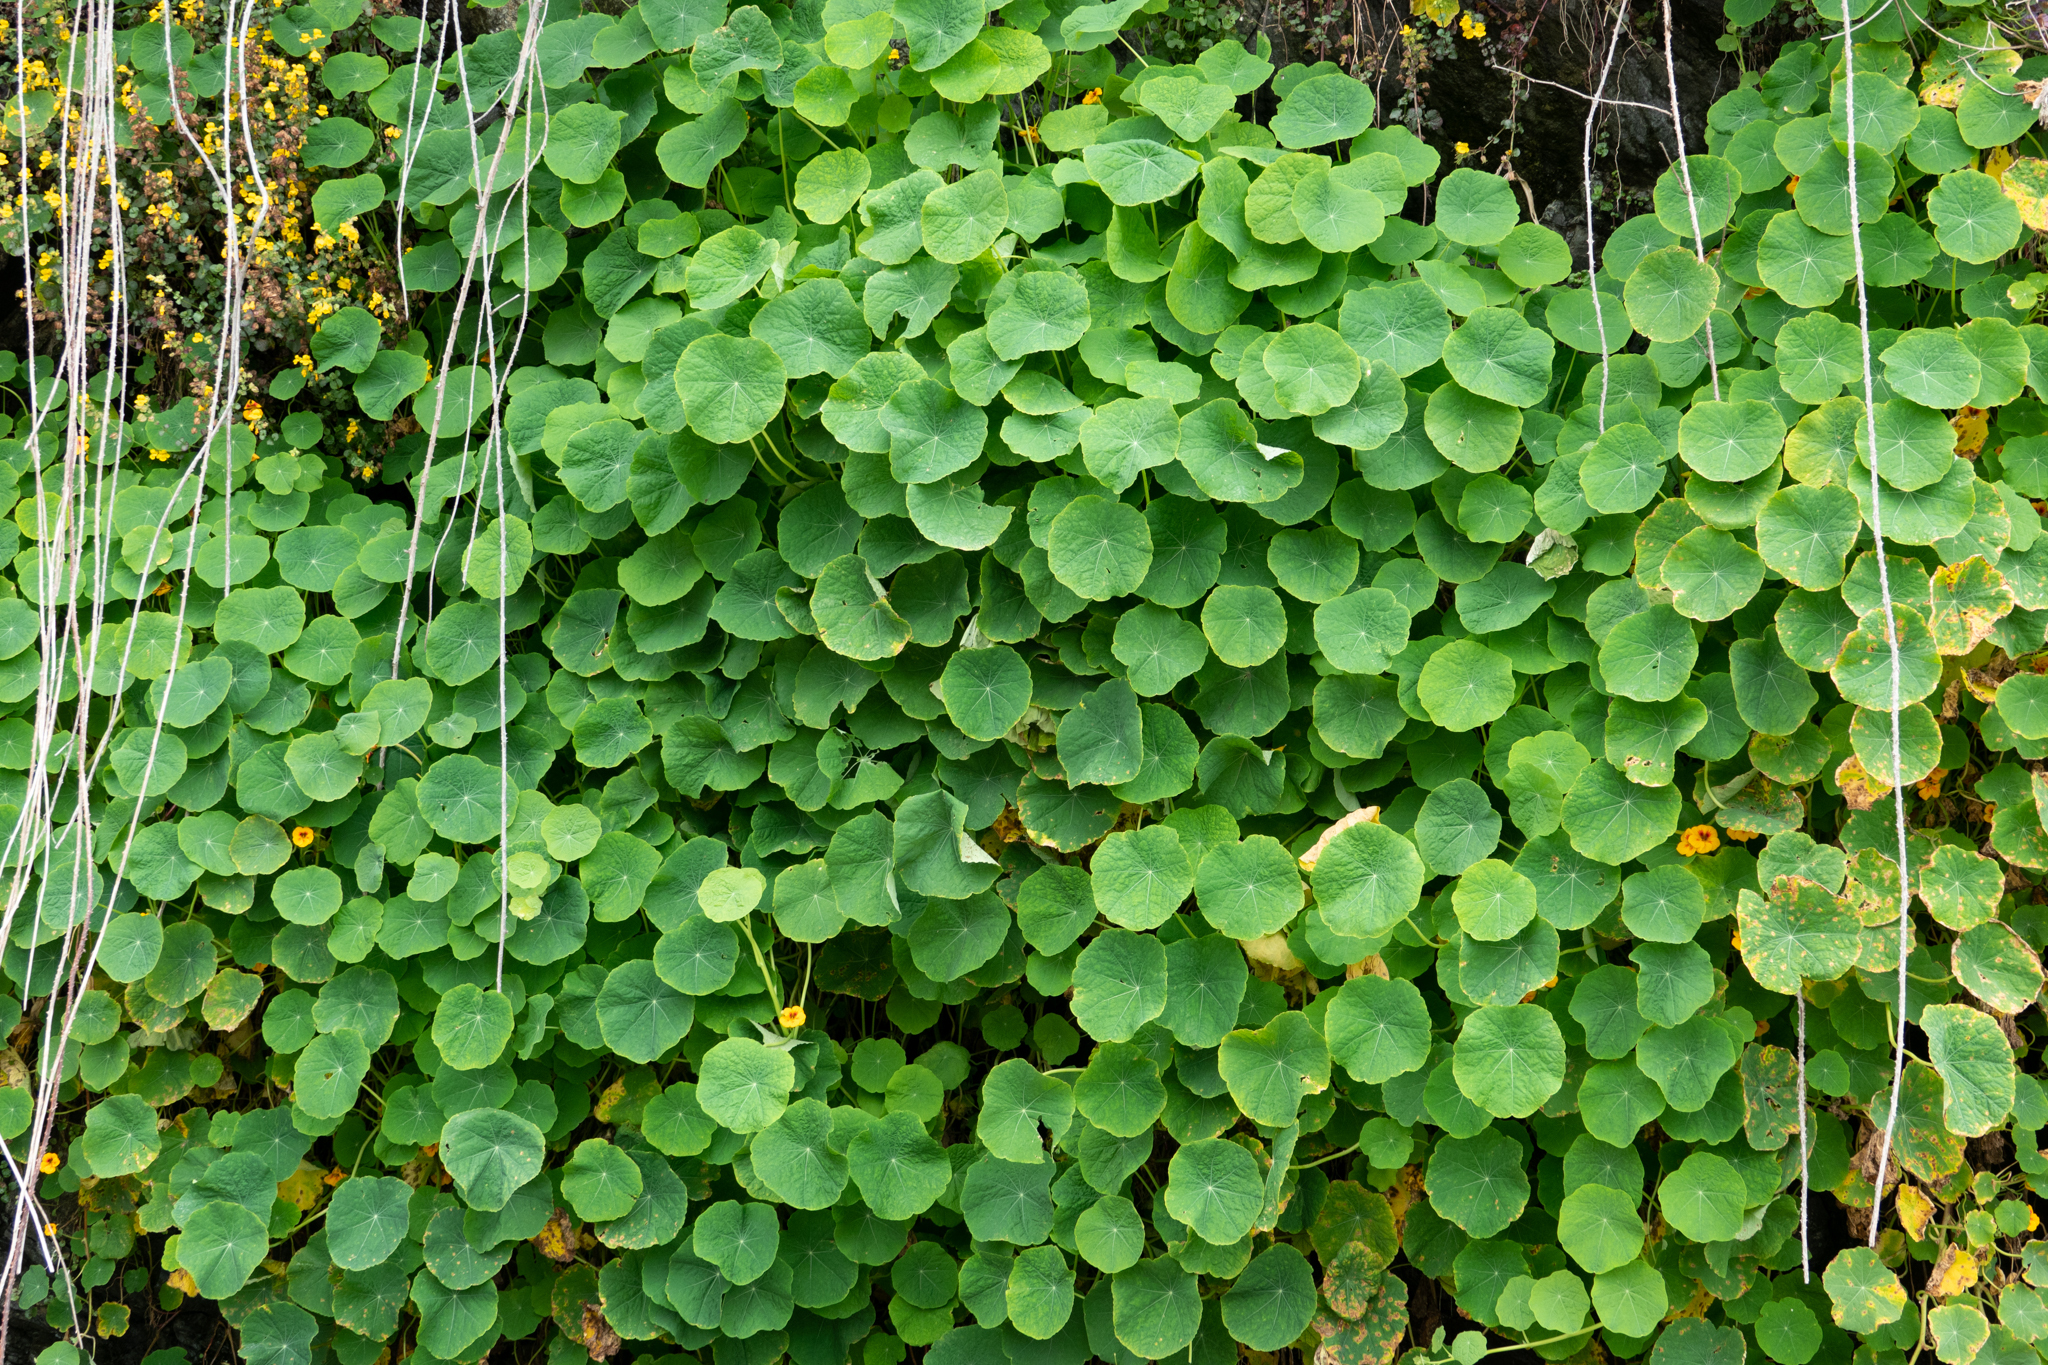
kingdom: Plantae
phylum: Tracheophyta
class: Magnoliopsida
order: Brassicales
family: Tropaeolaceae
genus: Tropaeolum
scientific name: Tropaeolum majus
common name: Nasturtium
